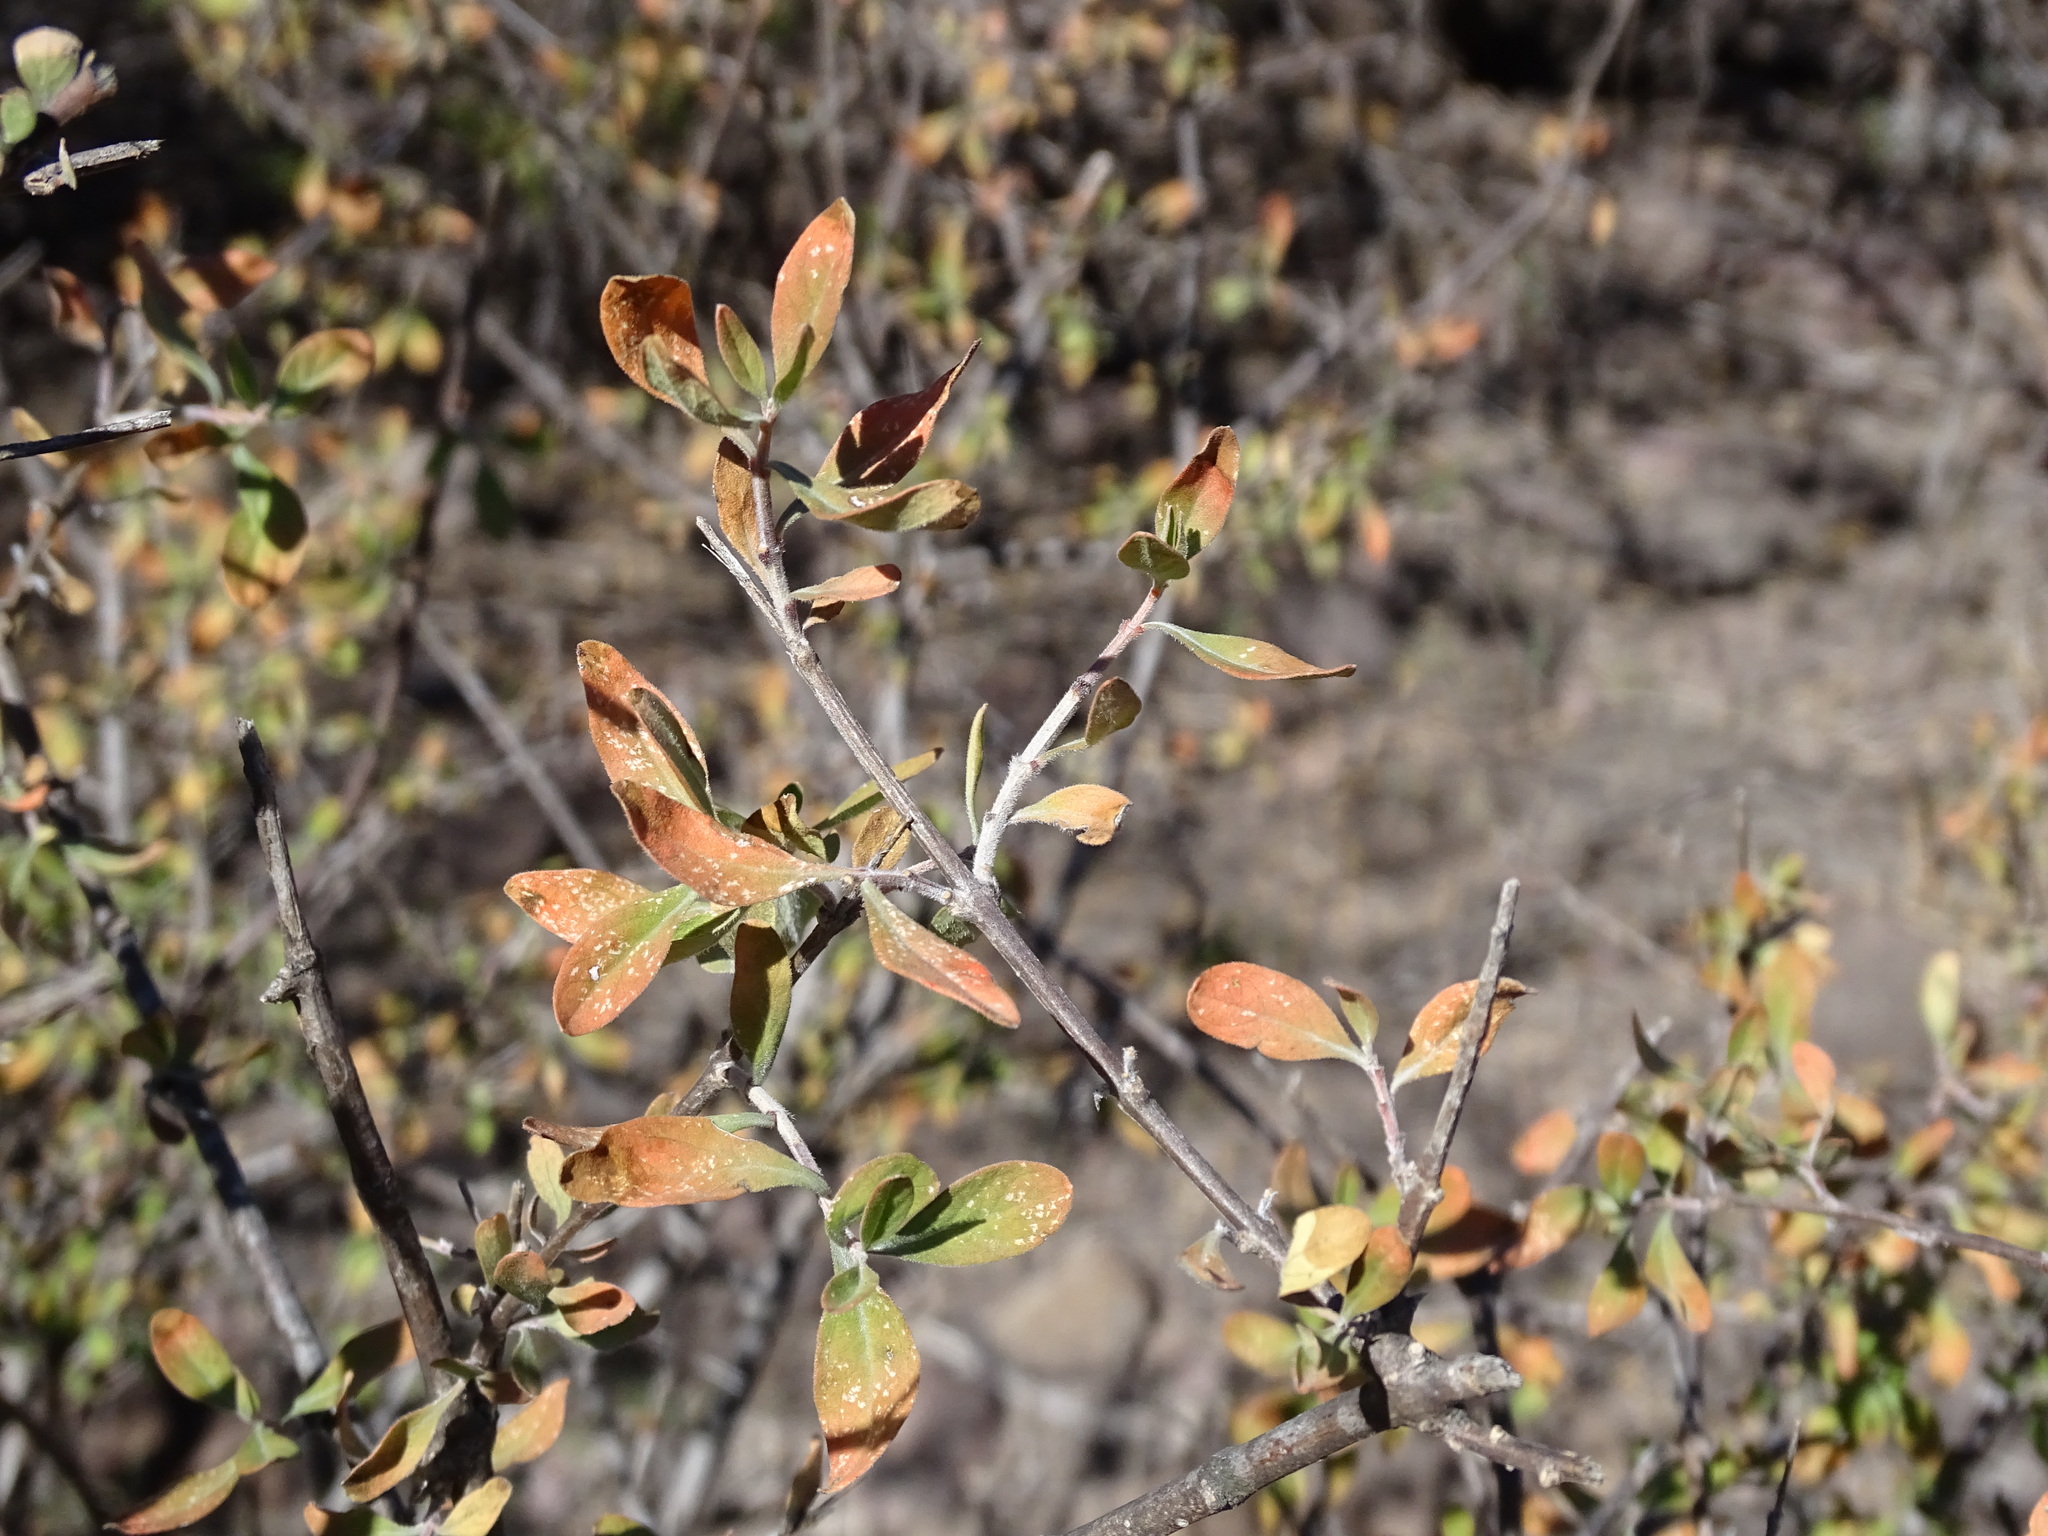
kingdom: Plantae
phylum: Tracheophyta
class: Magnoliopsida
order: Lamiales
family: Verbenaceae
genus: Citharexylum
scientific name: Citharexylum racemosum
